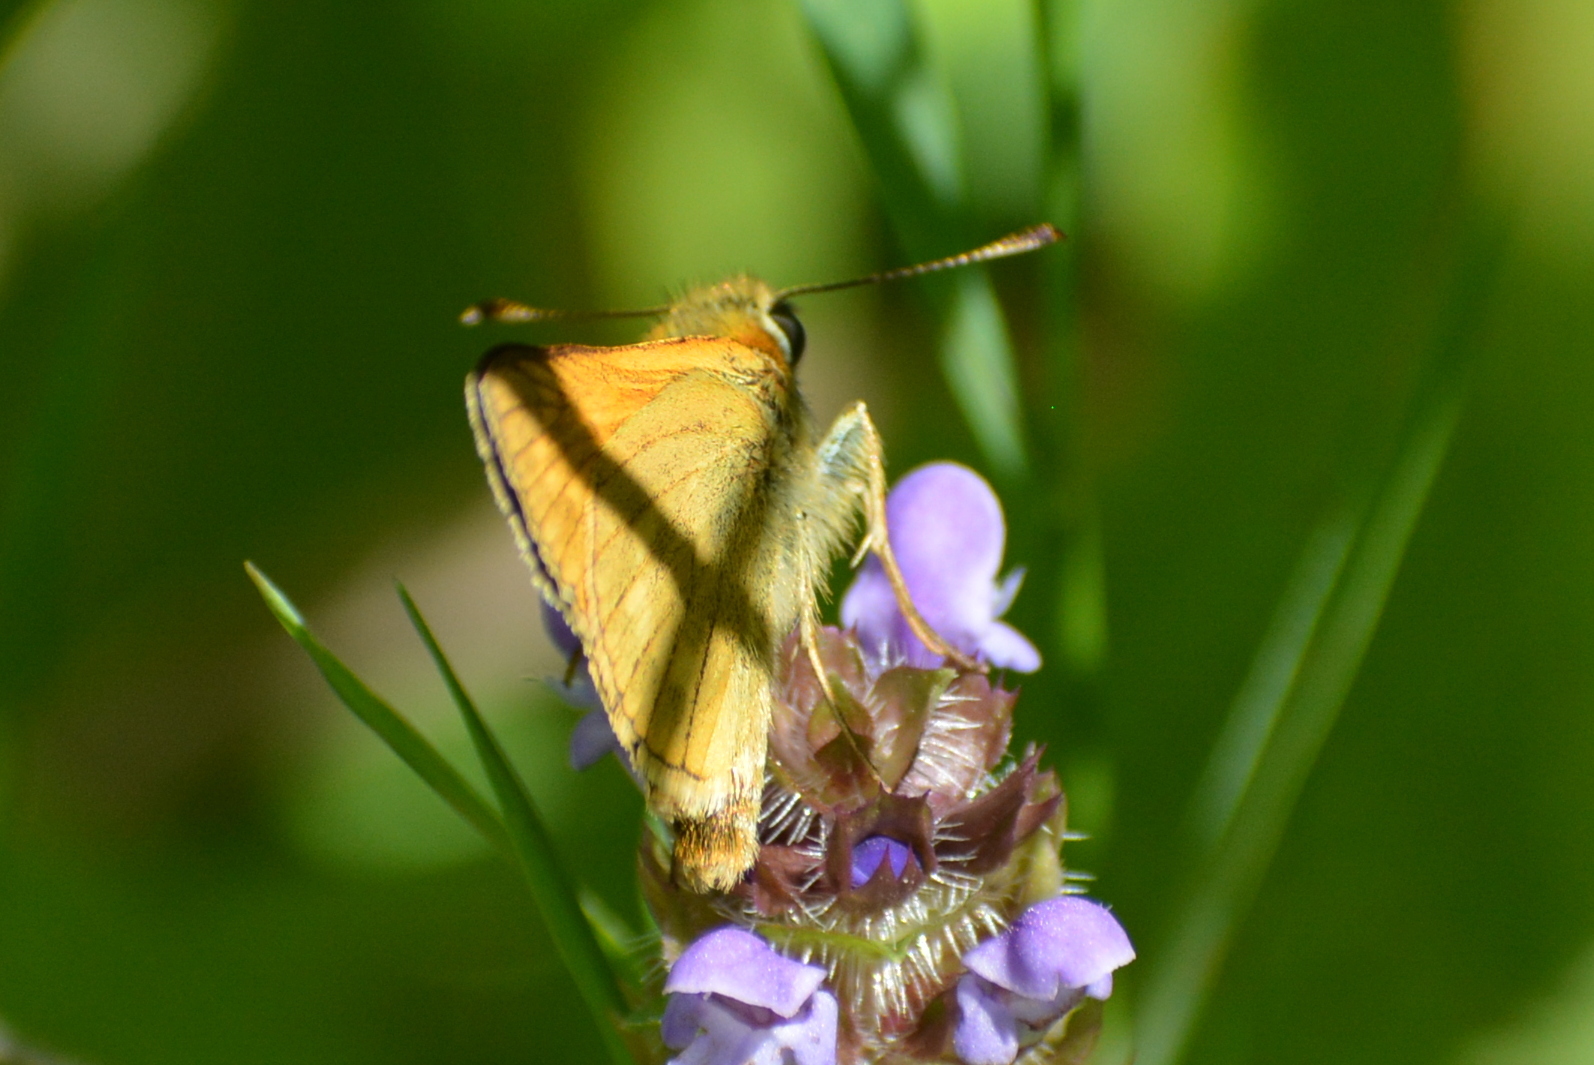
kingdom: Animalia
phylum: Arthropoda
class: Insecta
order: Lepidoptera
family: Hesperiidae
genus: Ochlodes
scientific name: Ochlodes venata
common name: Large skipper
